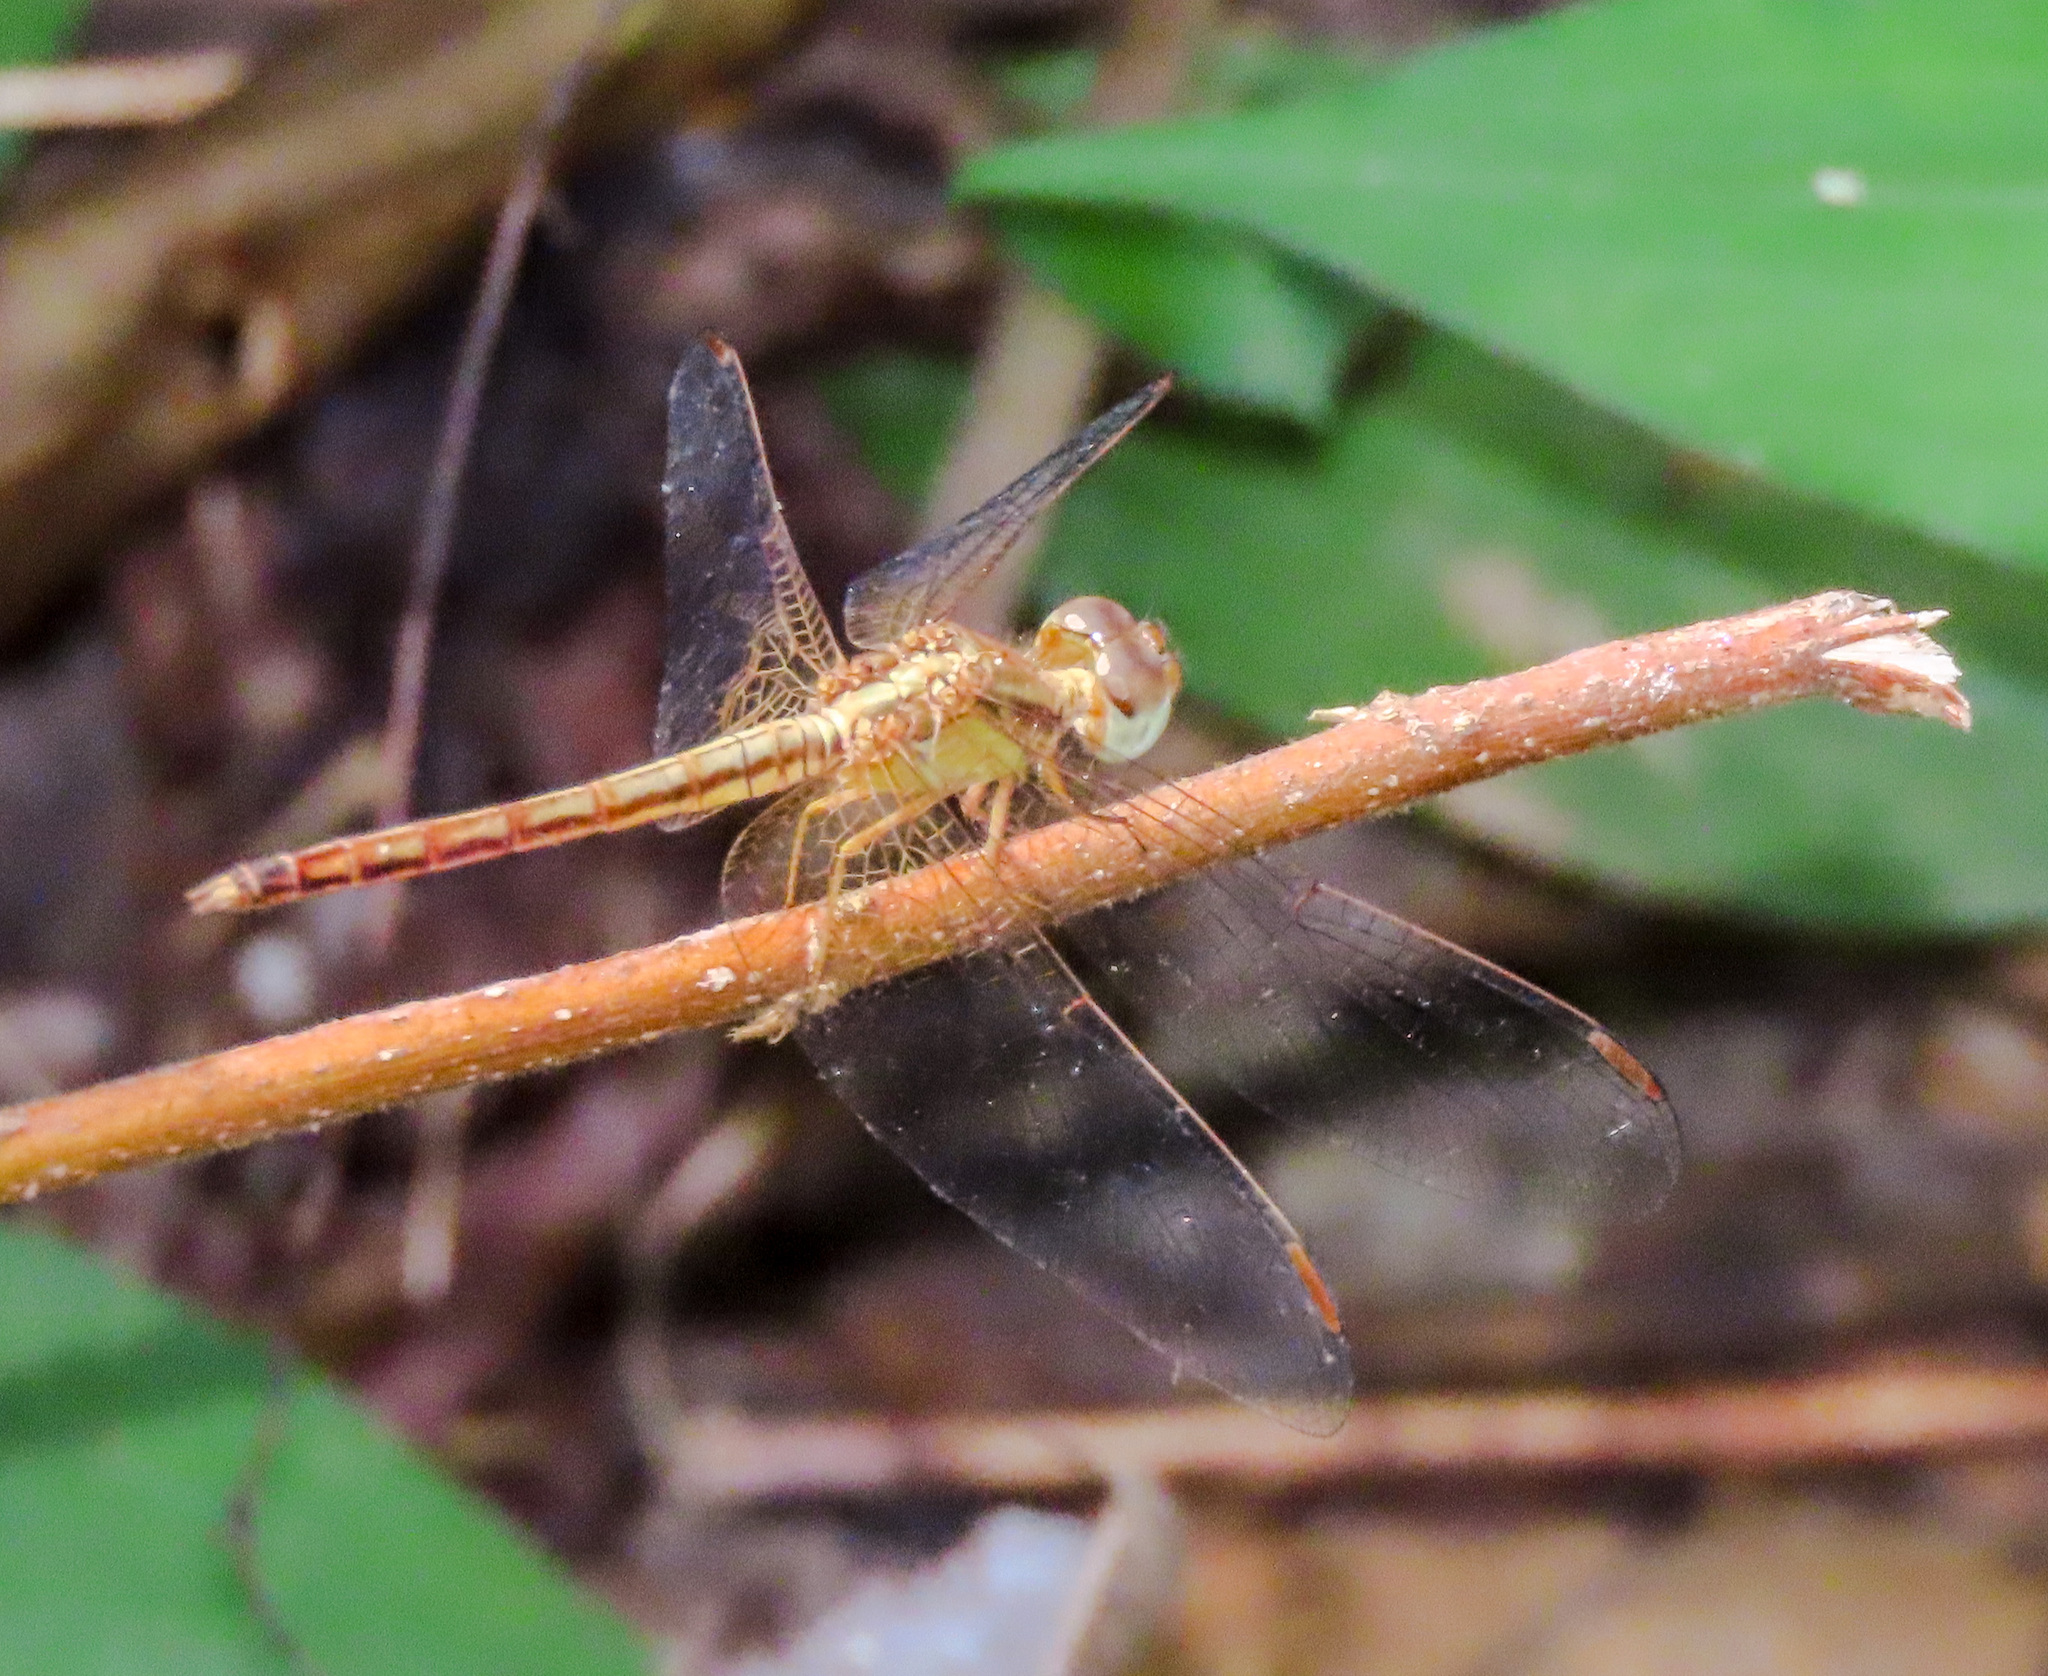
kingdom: Animalia
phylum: Arthropoda
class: Insecta
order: Odonata
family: Libellulidae
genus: Neurothemis
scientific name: Neurothemis intermedia
